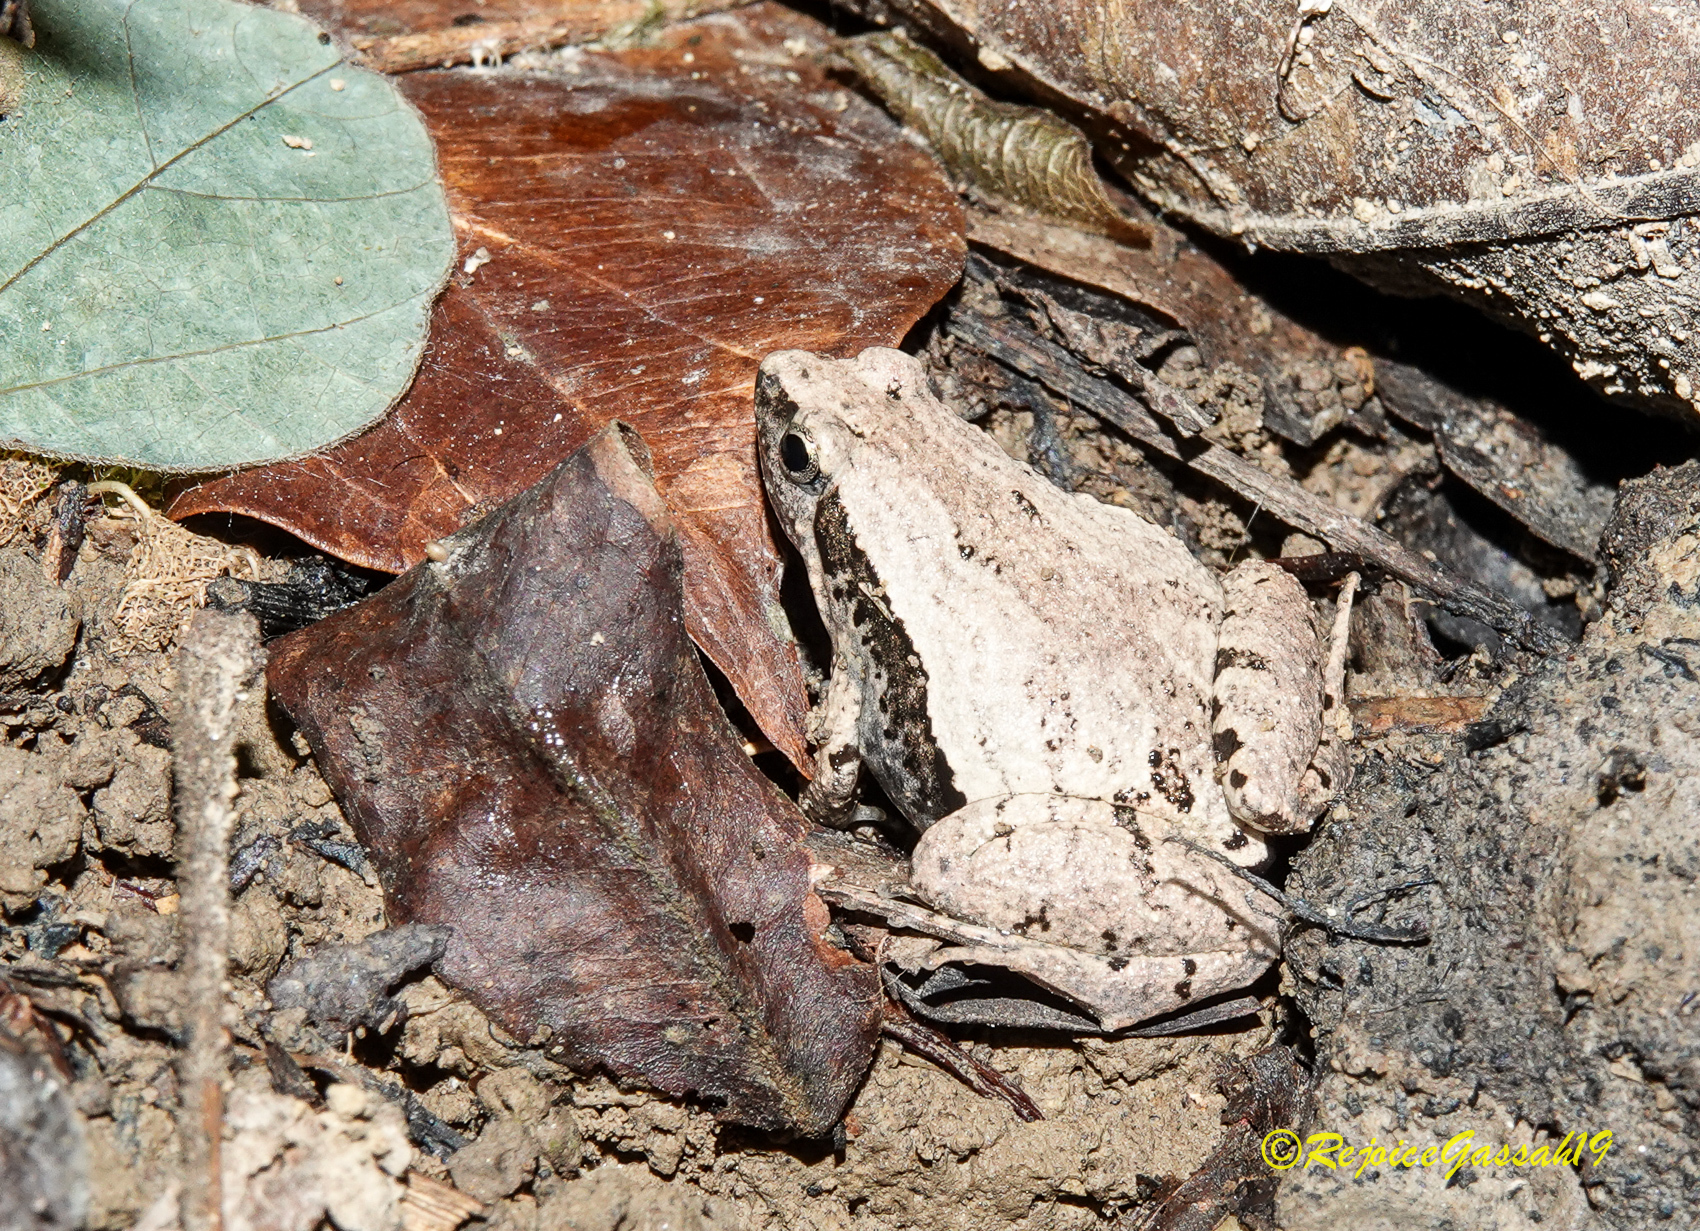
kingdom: Animalia
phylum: Chordata
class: Amphibia
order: Anura
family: Microhylidae
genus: Microhyla
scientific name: Microhyla mymensinghensis
